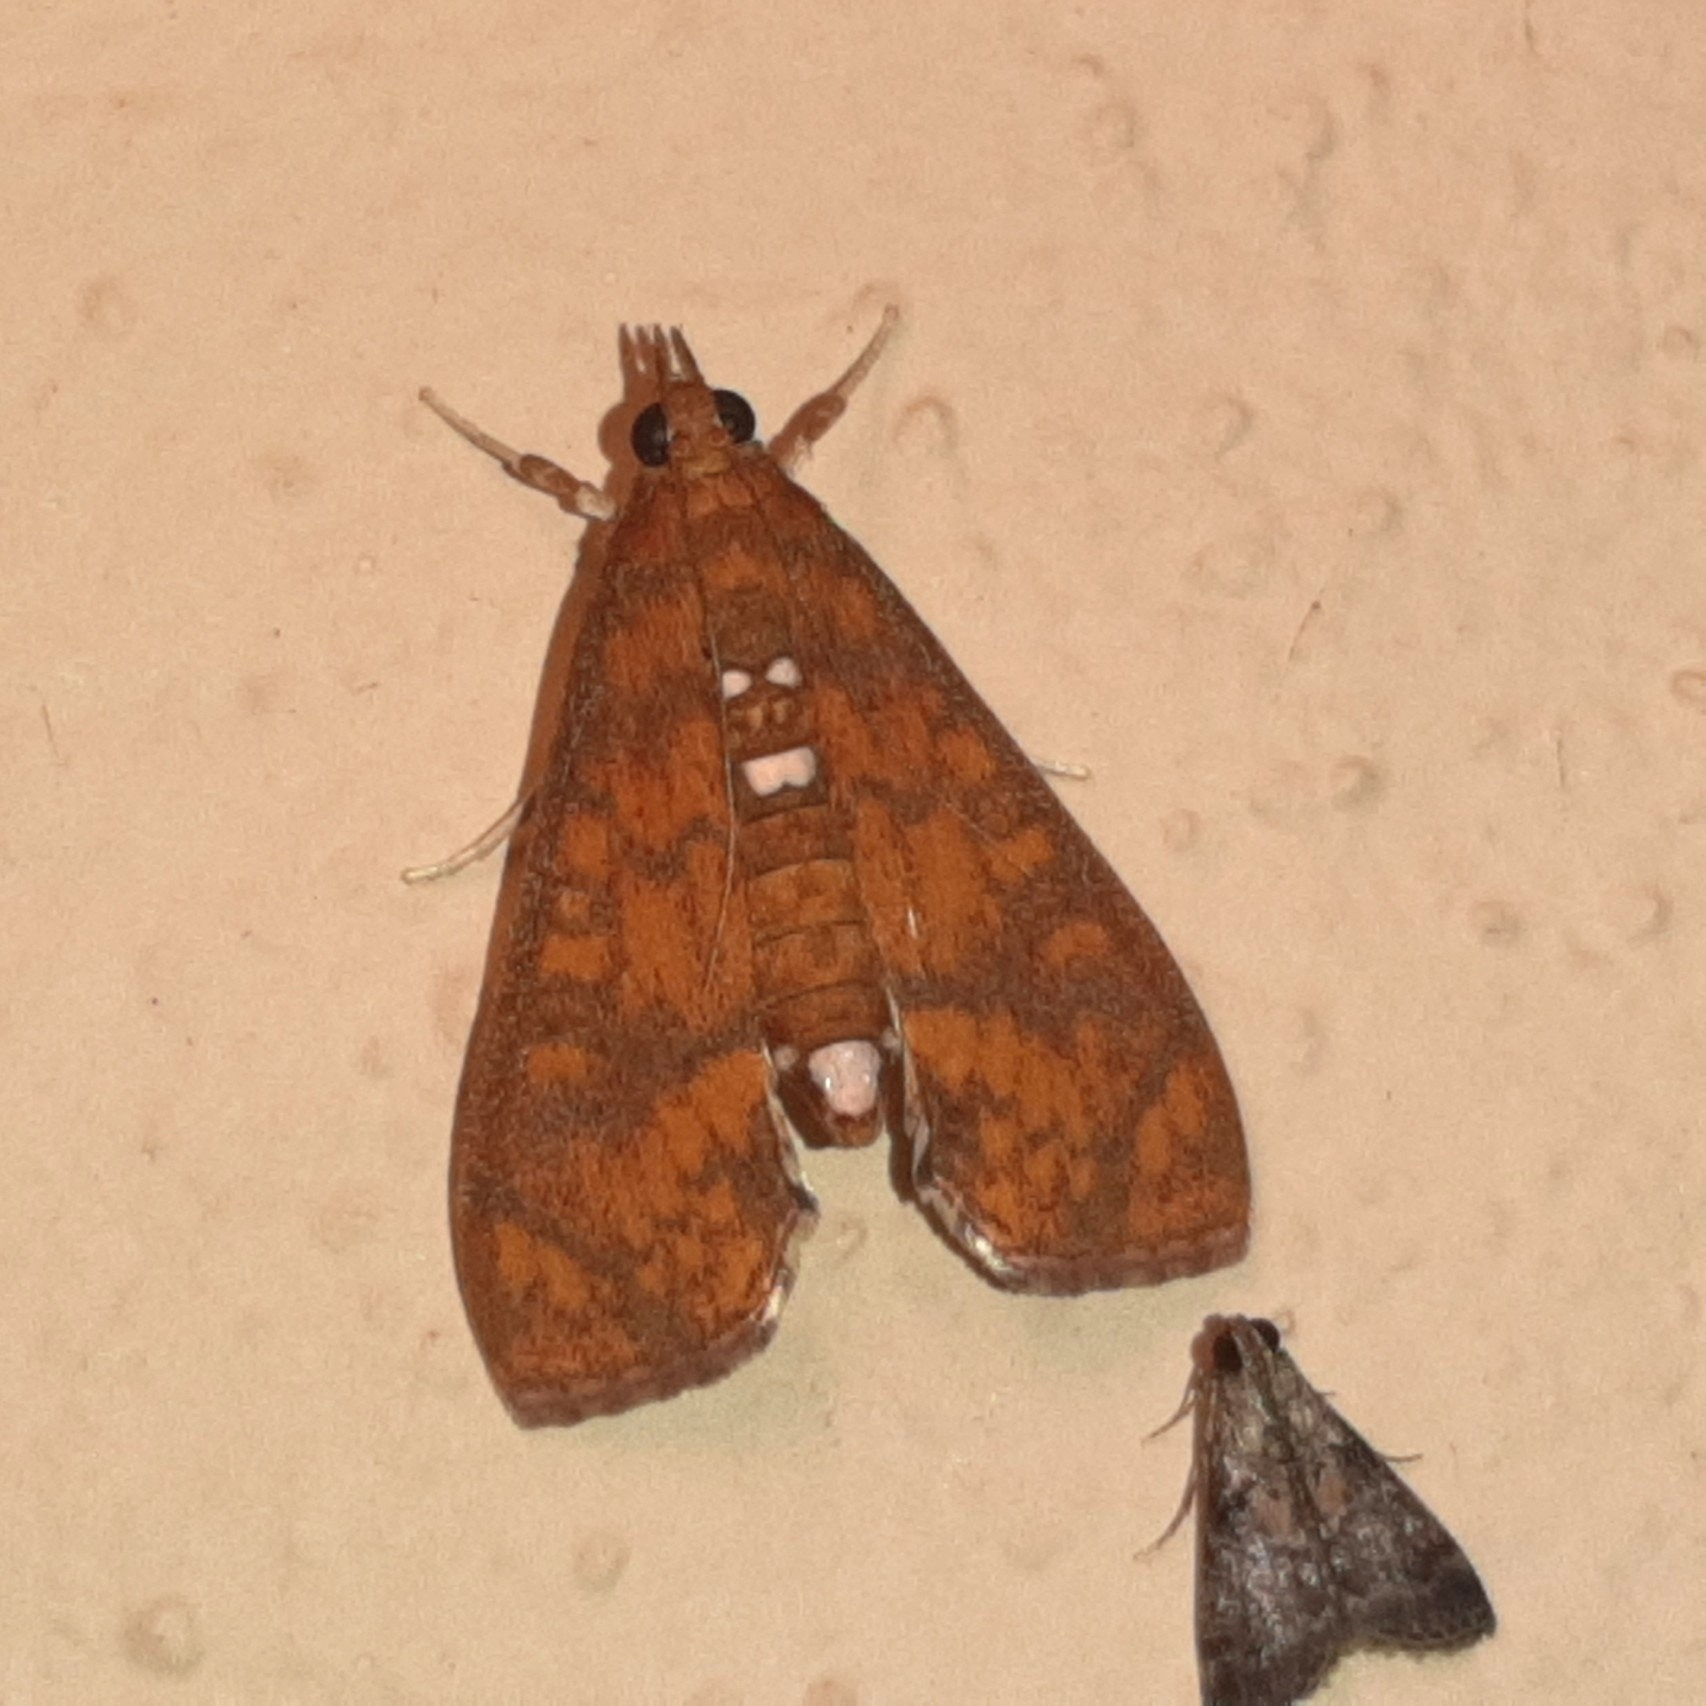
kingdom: Animalia
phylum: Arthropoda
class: Insecta
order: Lepidoptera
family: Crambidae
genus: Liopasia
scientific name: Liopasia ochracealis
